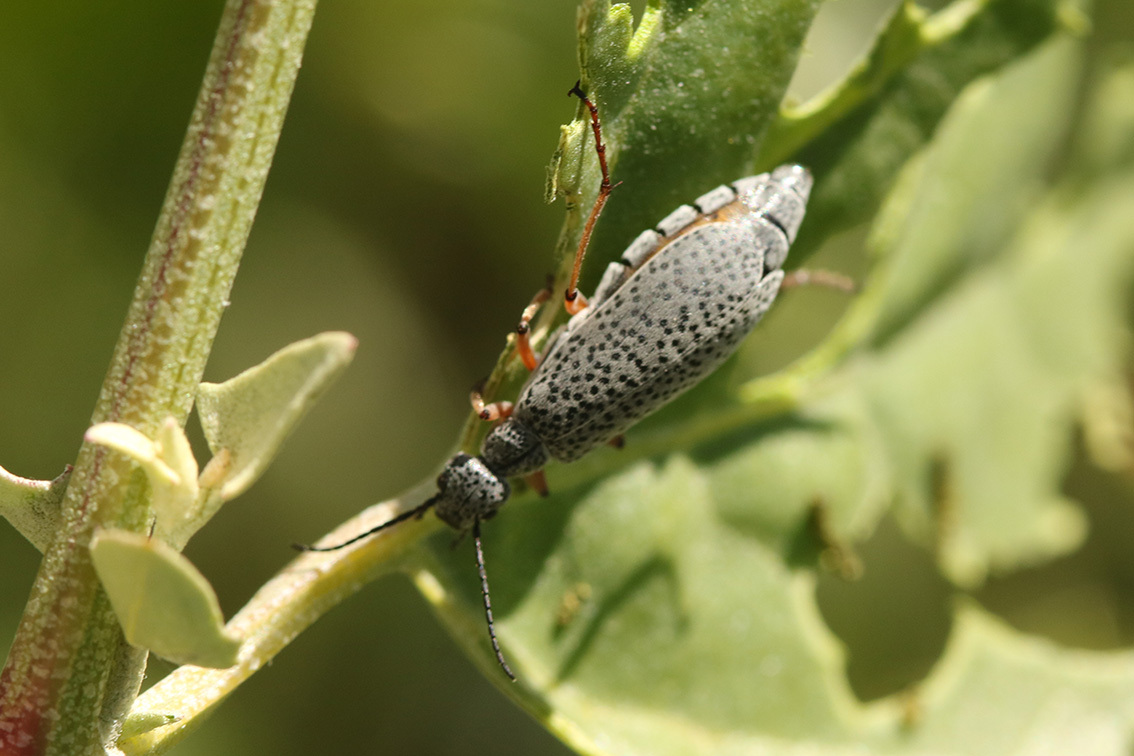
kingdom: Animalia
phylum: Arthropoda
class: Insecta
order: Coleoptera
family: Meloidae
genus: Epicauta
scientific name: Epicauta
